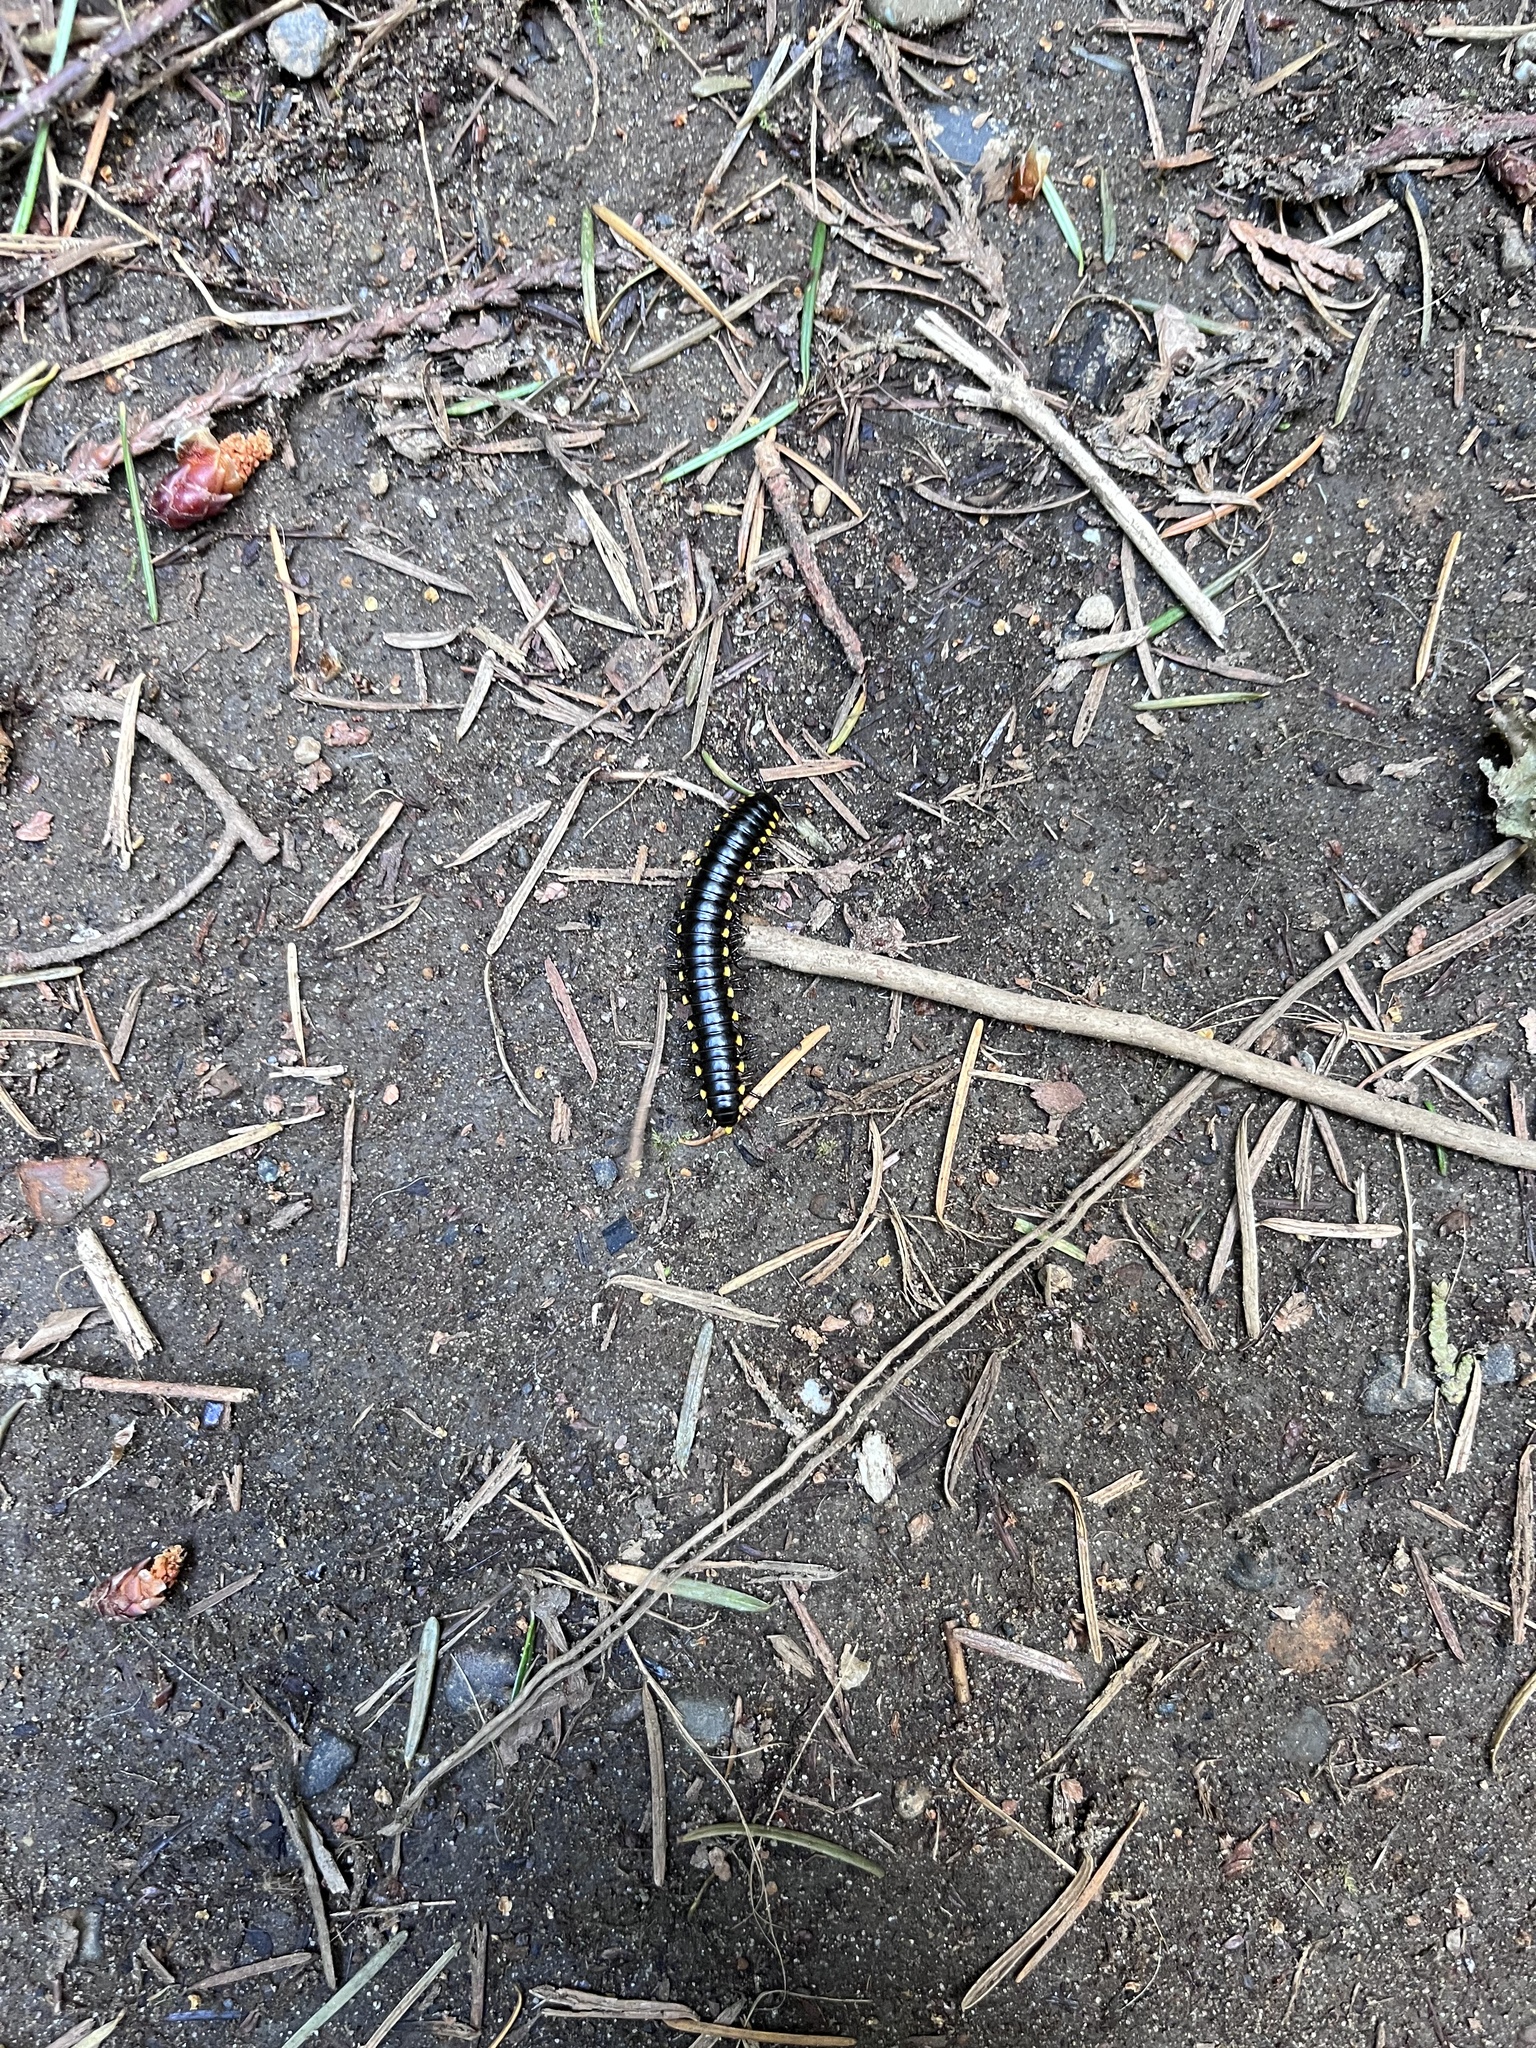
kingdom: Animalia
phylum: Arthropoda
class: Diplopoda
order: Polydesmida
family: Xystodesmidae
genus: Harpaphe
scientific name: Harpaphe haydeniana
